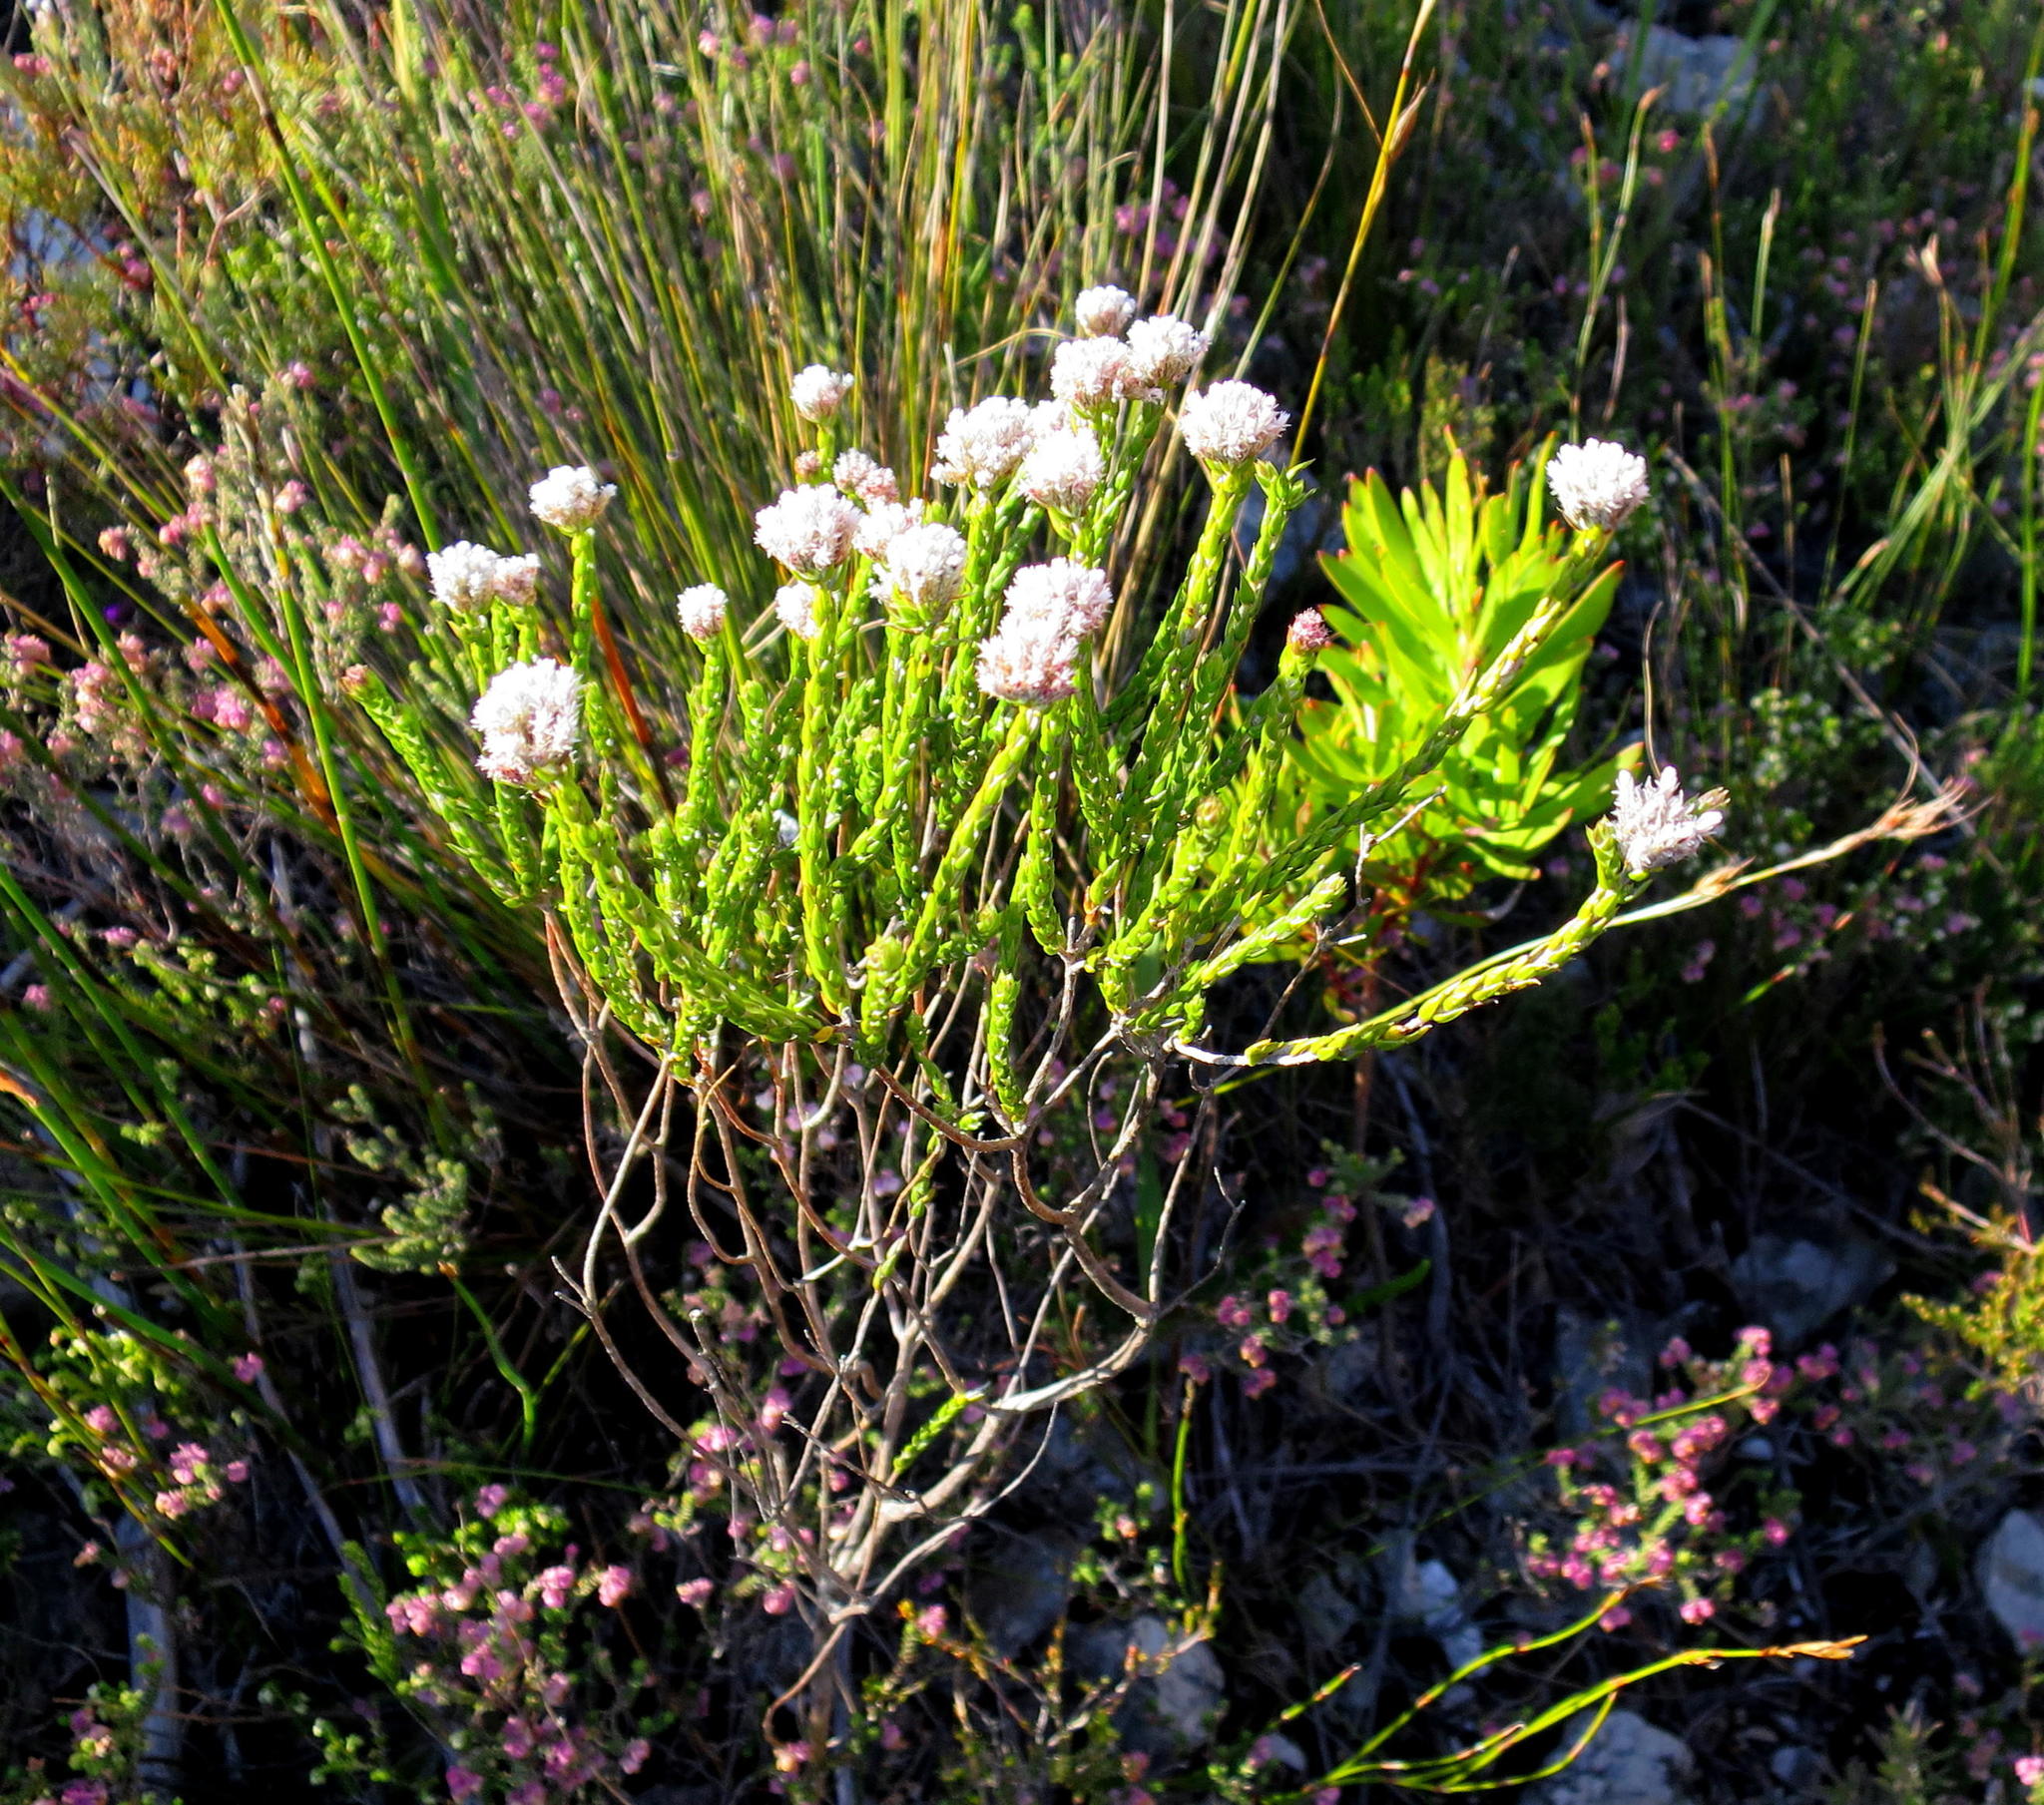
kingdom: Plantae
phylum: Tracheophyta
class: Magnoliopsida
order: Asterales
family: Asteraceae
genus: Metalasia
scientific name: Metalasia pulcherrima
